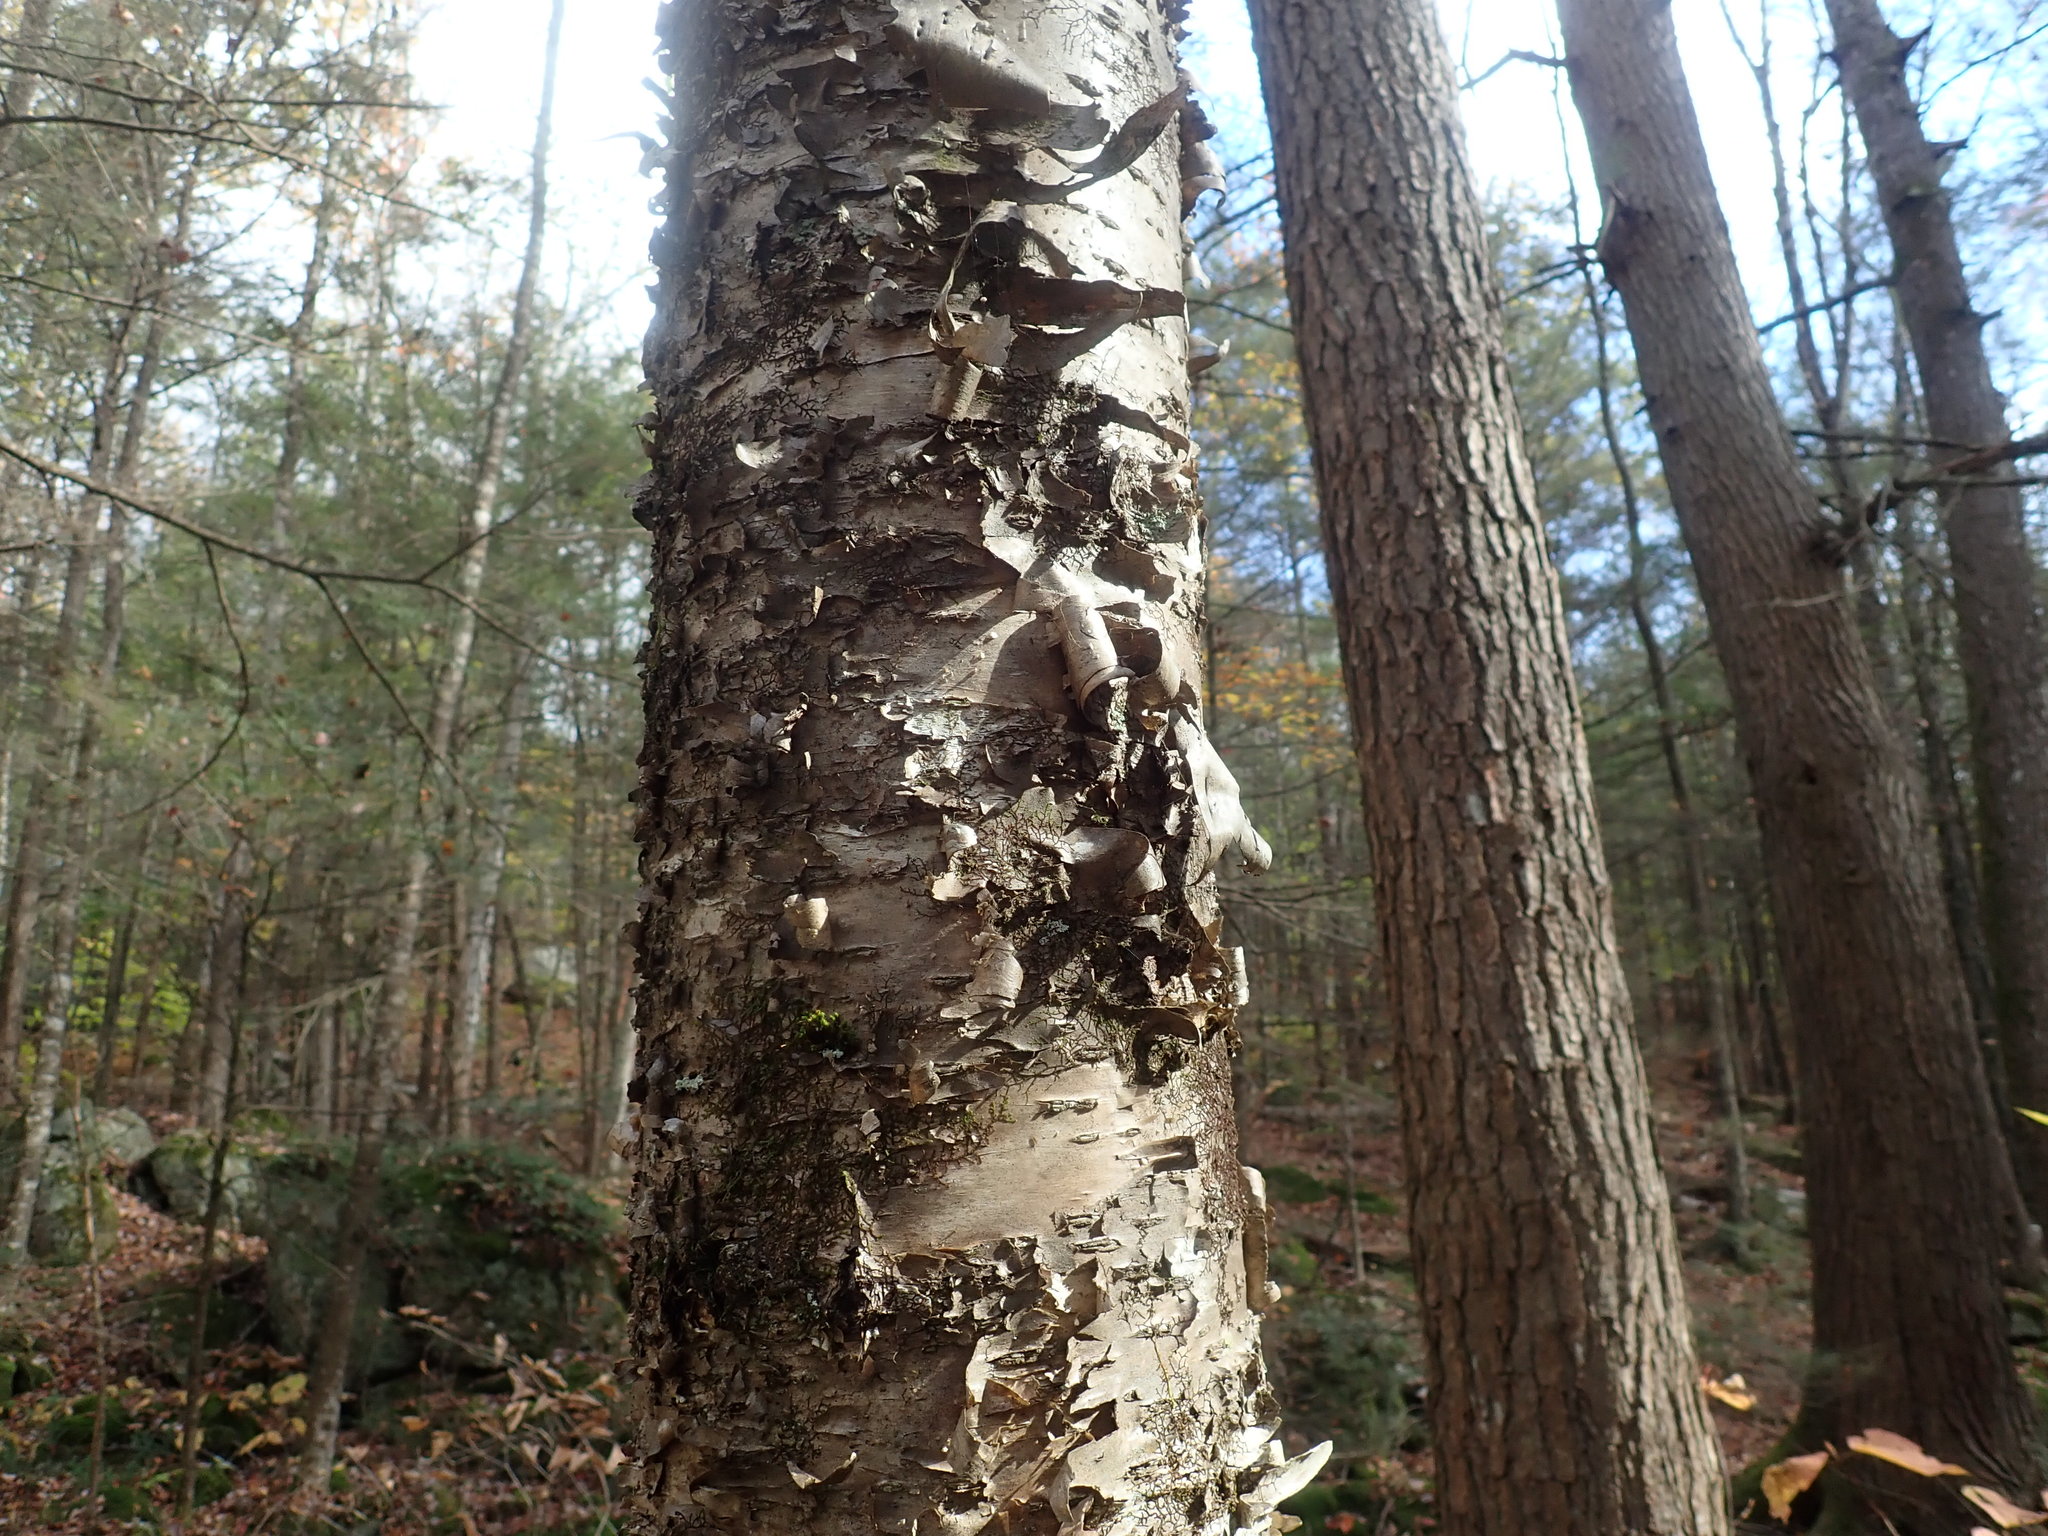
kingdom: Plantae
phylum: Tracheophyta
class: Magnoliopsida
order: Fagales
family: Betulaceae
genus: Betula
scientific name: Betula alleghaniensis
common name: Yellow birch
